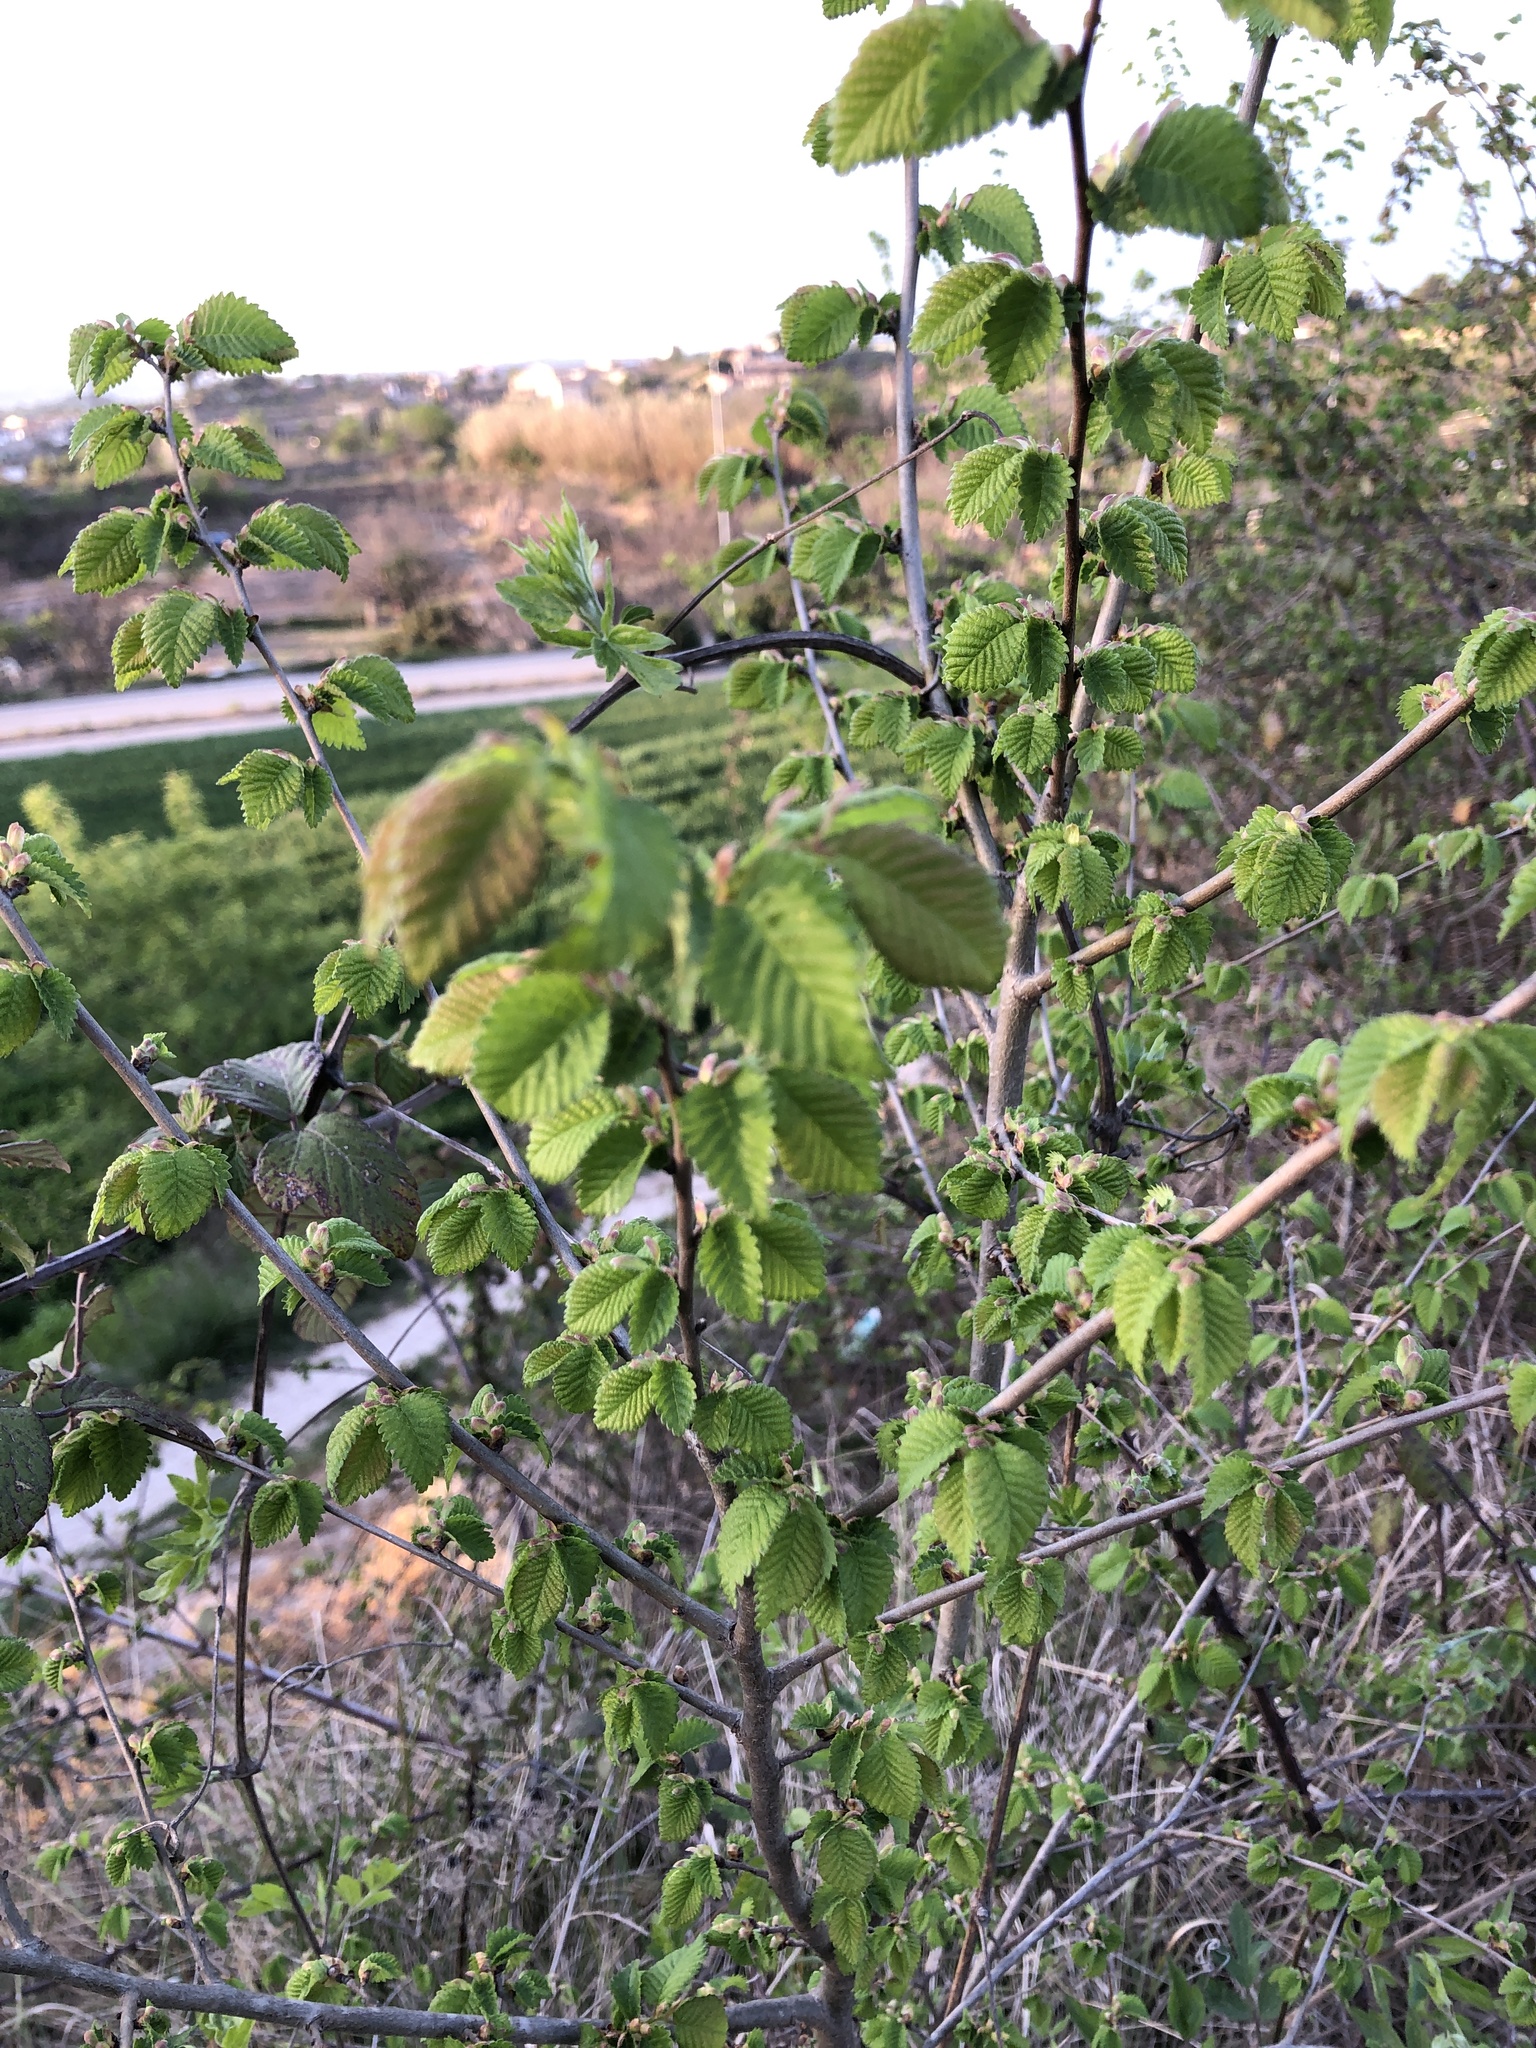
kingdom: Plantae
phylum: Tracheophyta
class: Magnoliopsida
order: Rosales
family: Ulmaceae
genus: Ulmus
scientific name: Ulmus minor
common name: Small-leaved elm
